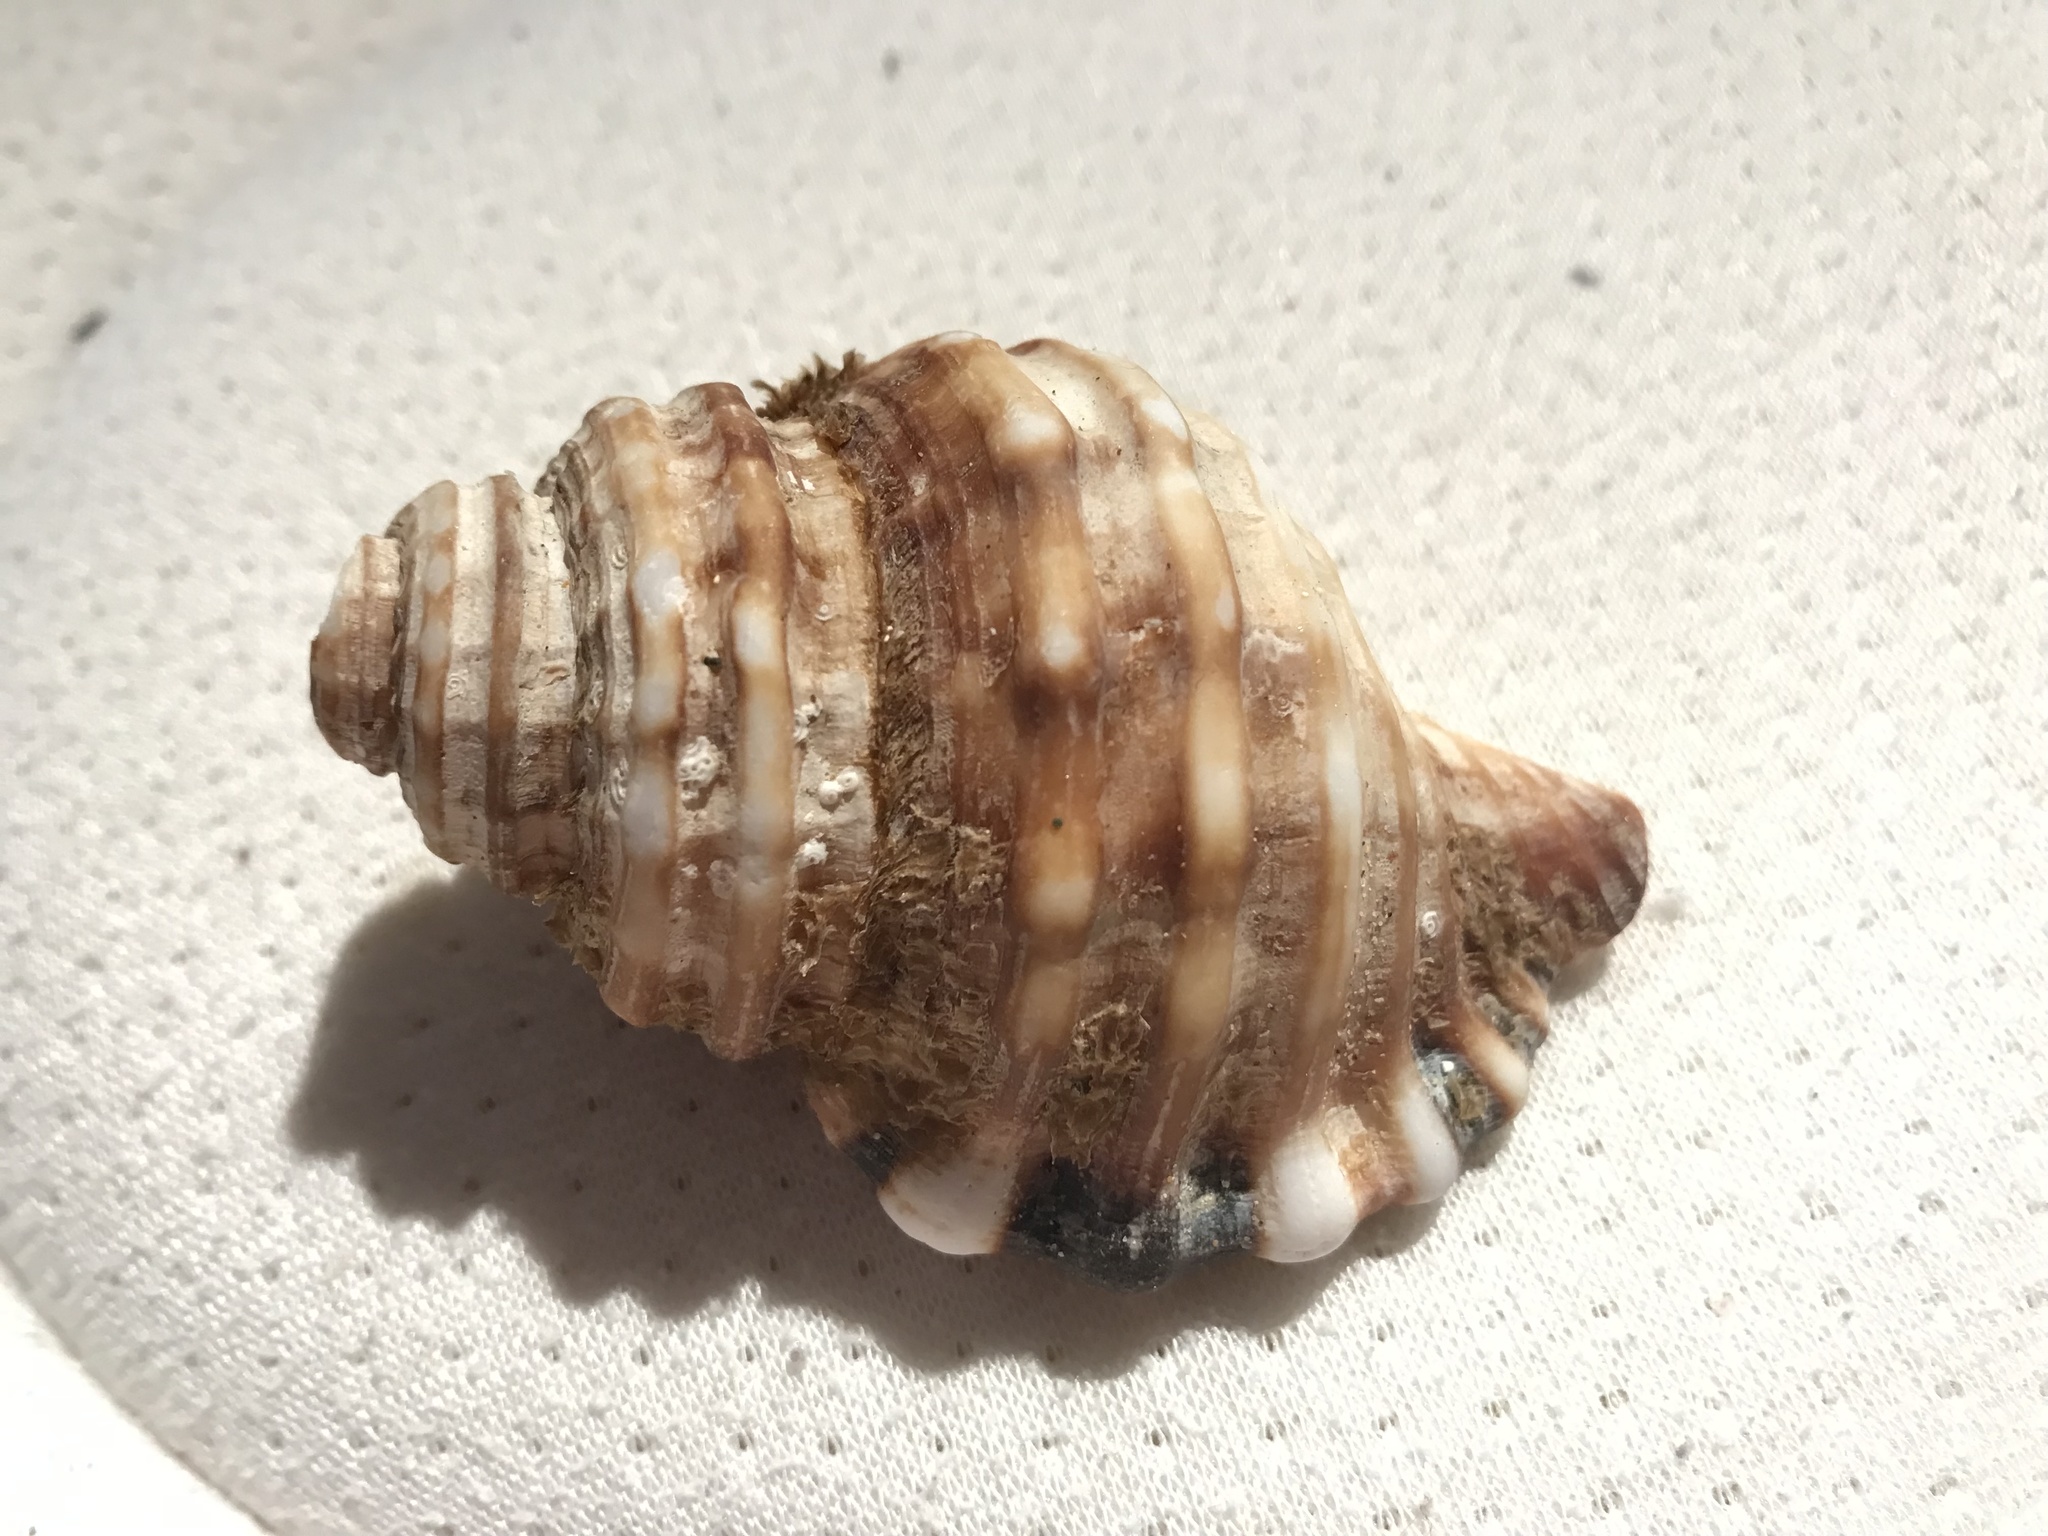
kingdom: Animalia
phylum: Mollusca
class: Gastropoda
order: Littorinimorpha
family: Cymatiidae
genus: Monoplex
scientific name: Monoplex parthenopeus
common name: Giant triton
